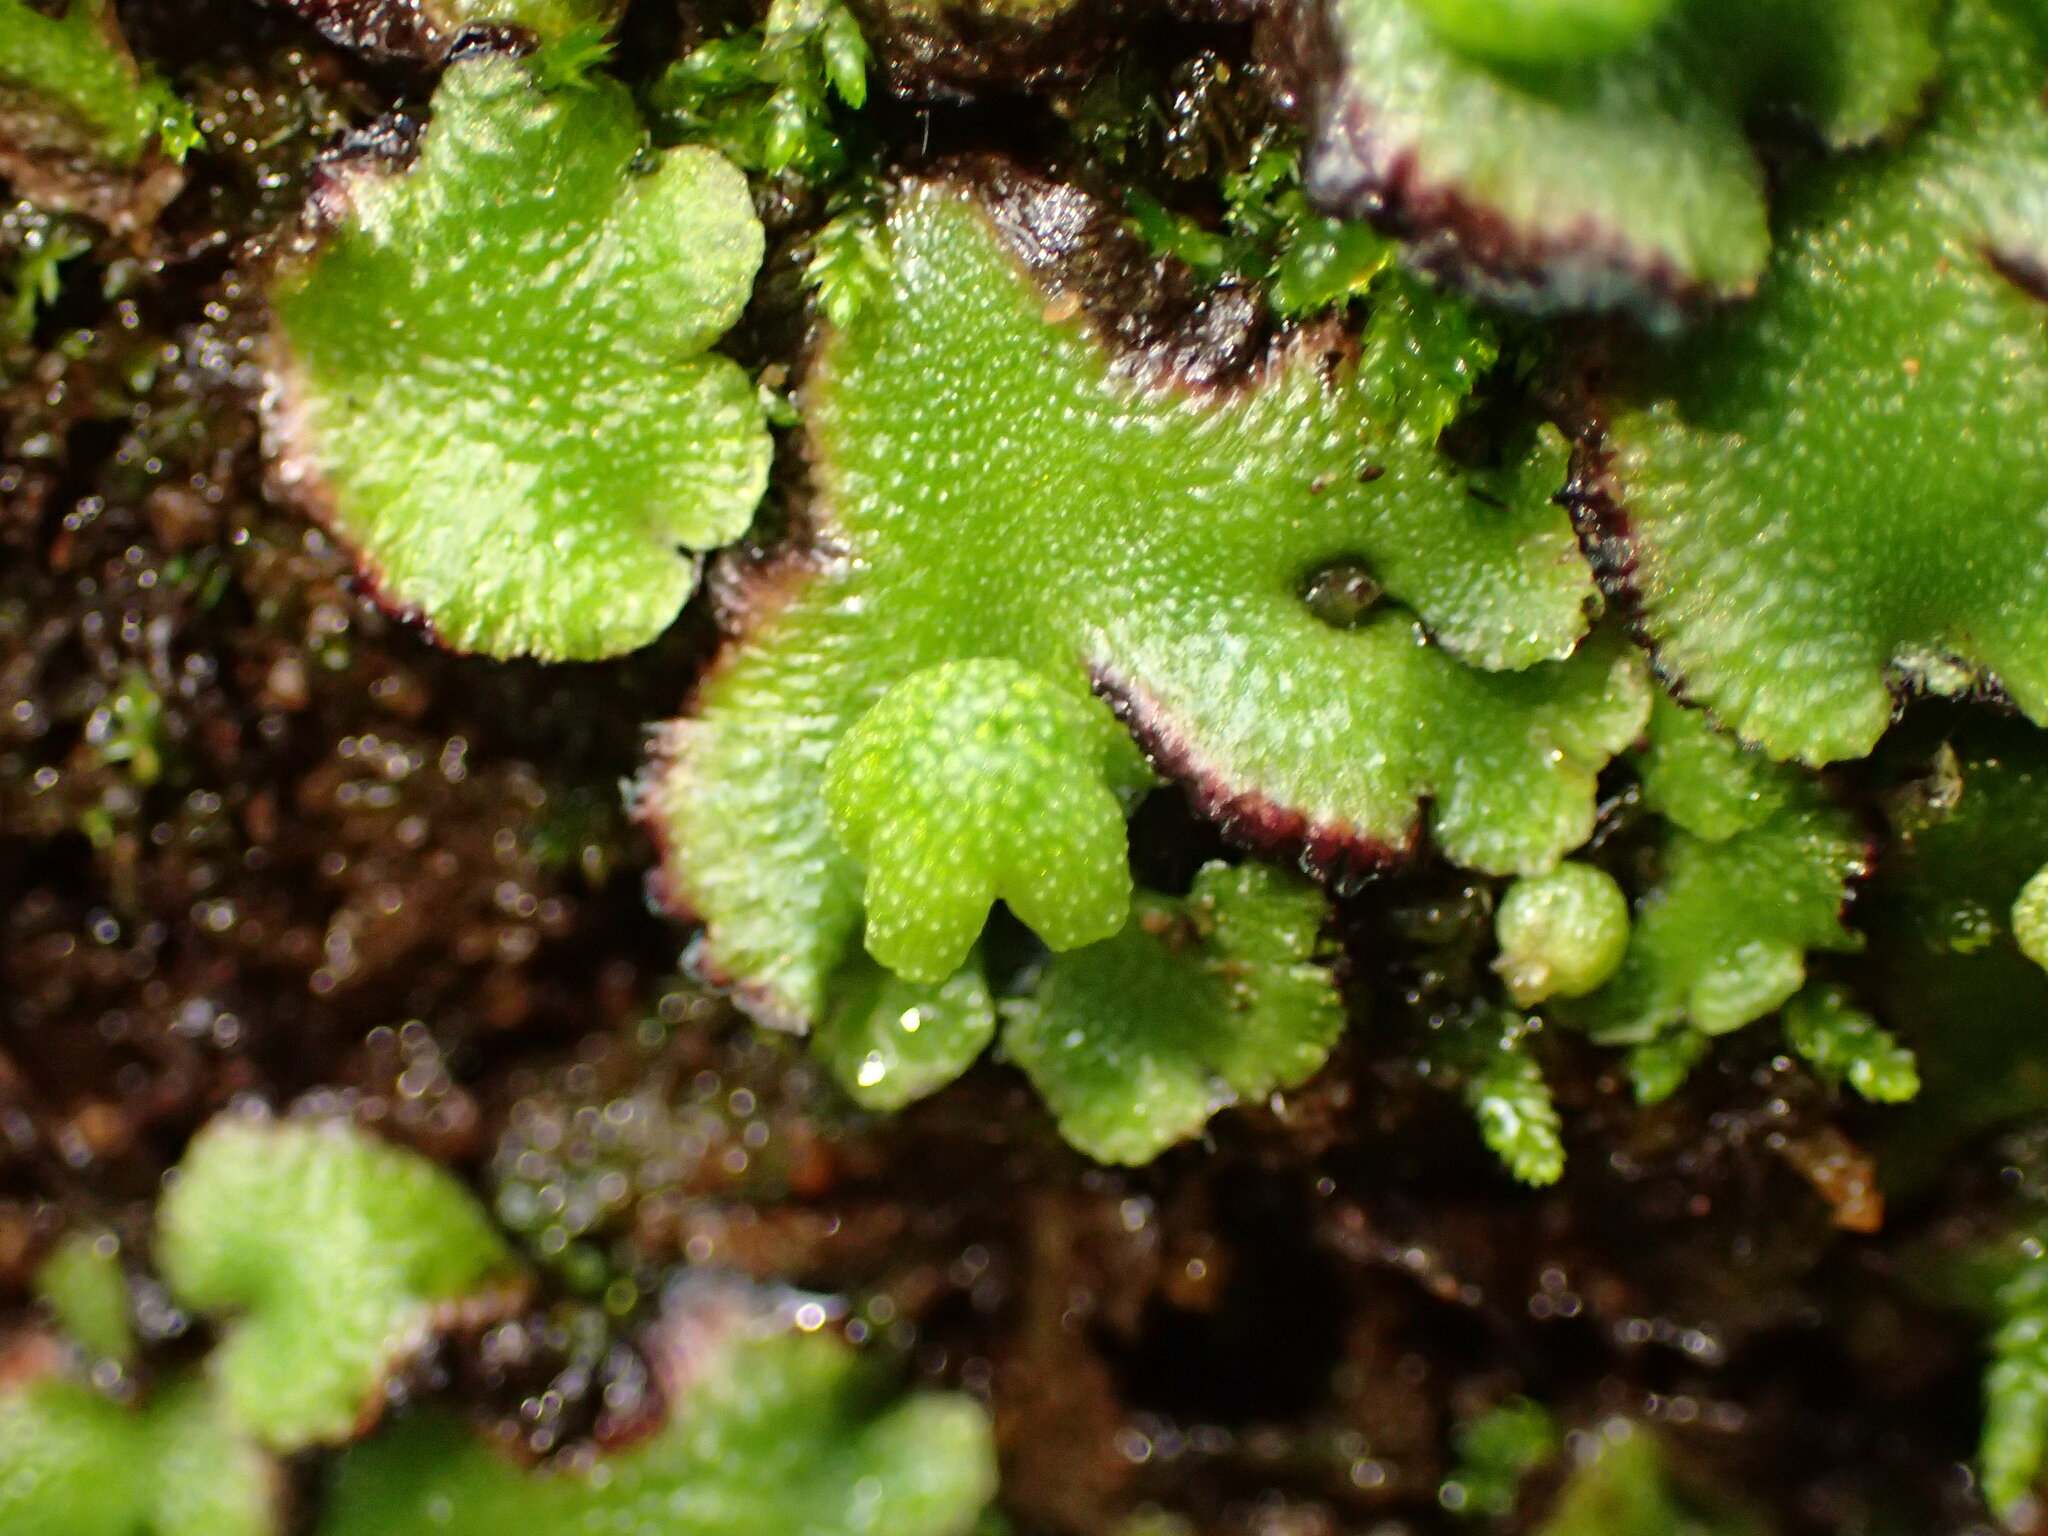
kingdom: Plantae
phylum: Marchantiophyta
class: Marchantiopsida
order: Marchantiales
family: Aytoniaceae
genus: Asterella
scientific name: Asterella californica
